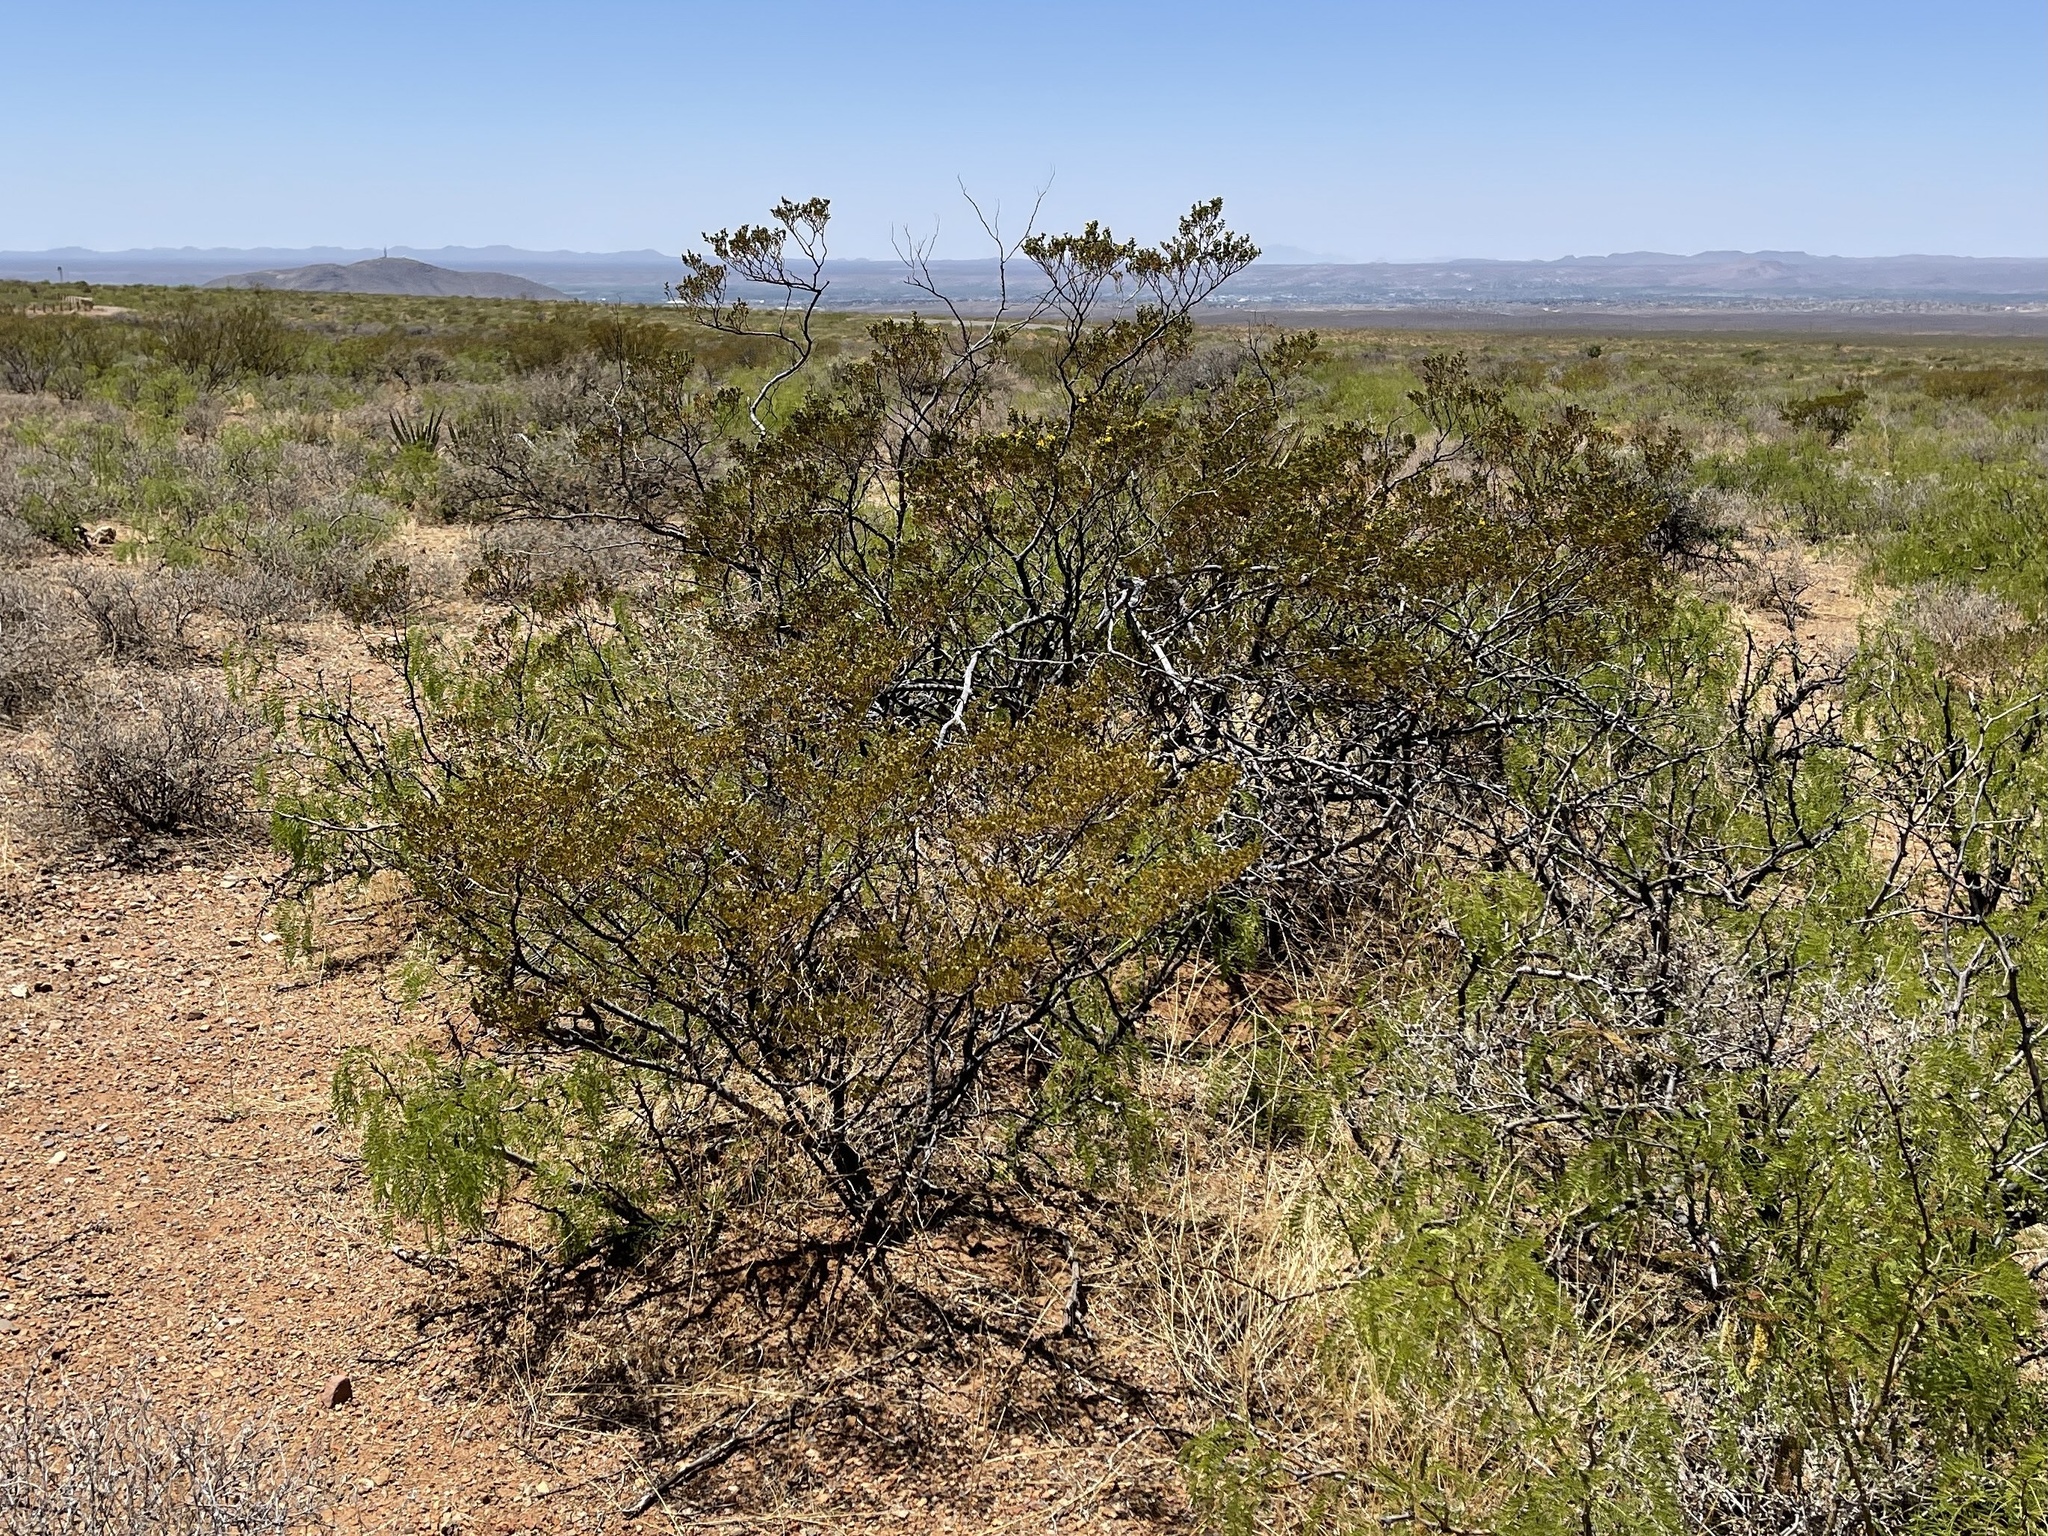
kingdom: Plantae
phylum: Tracheophyta
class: Magnoliopsida
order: Zygophyllales
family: Zygophyllaceae
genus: Larrea
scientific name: Larrea tridentata
